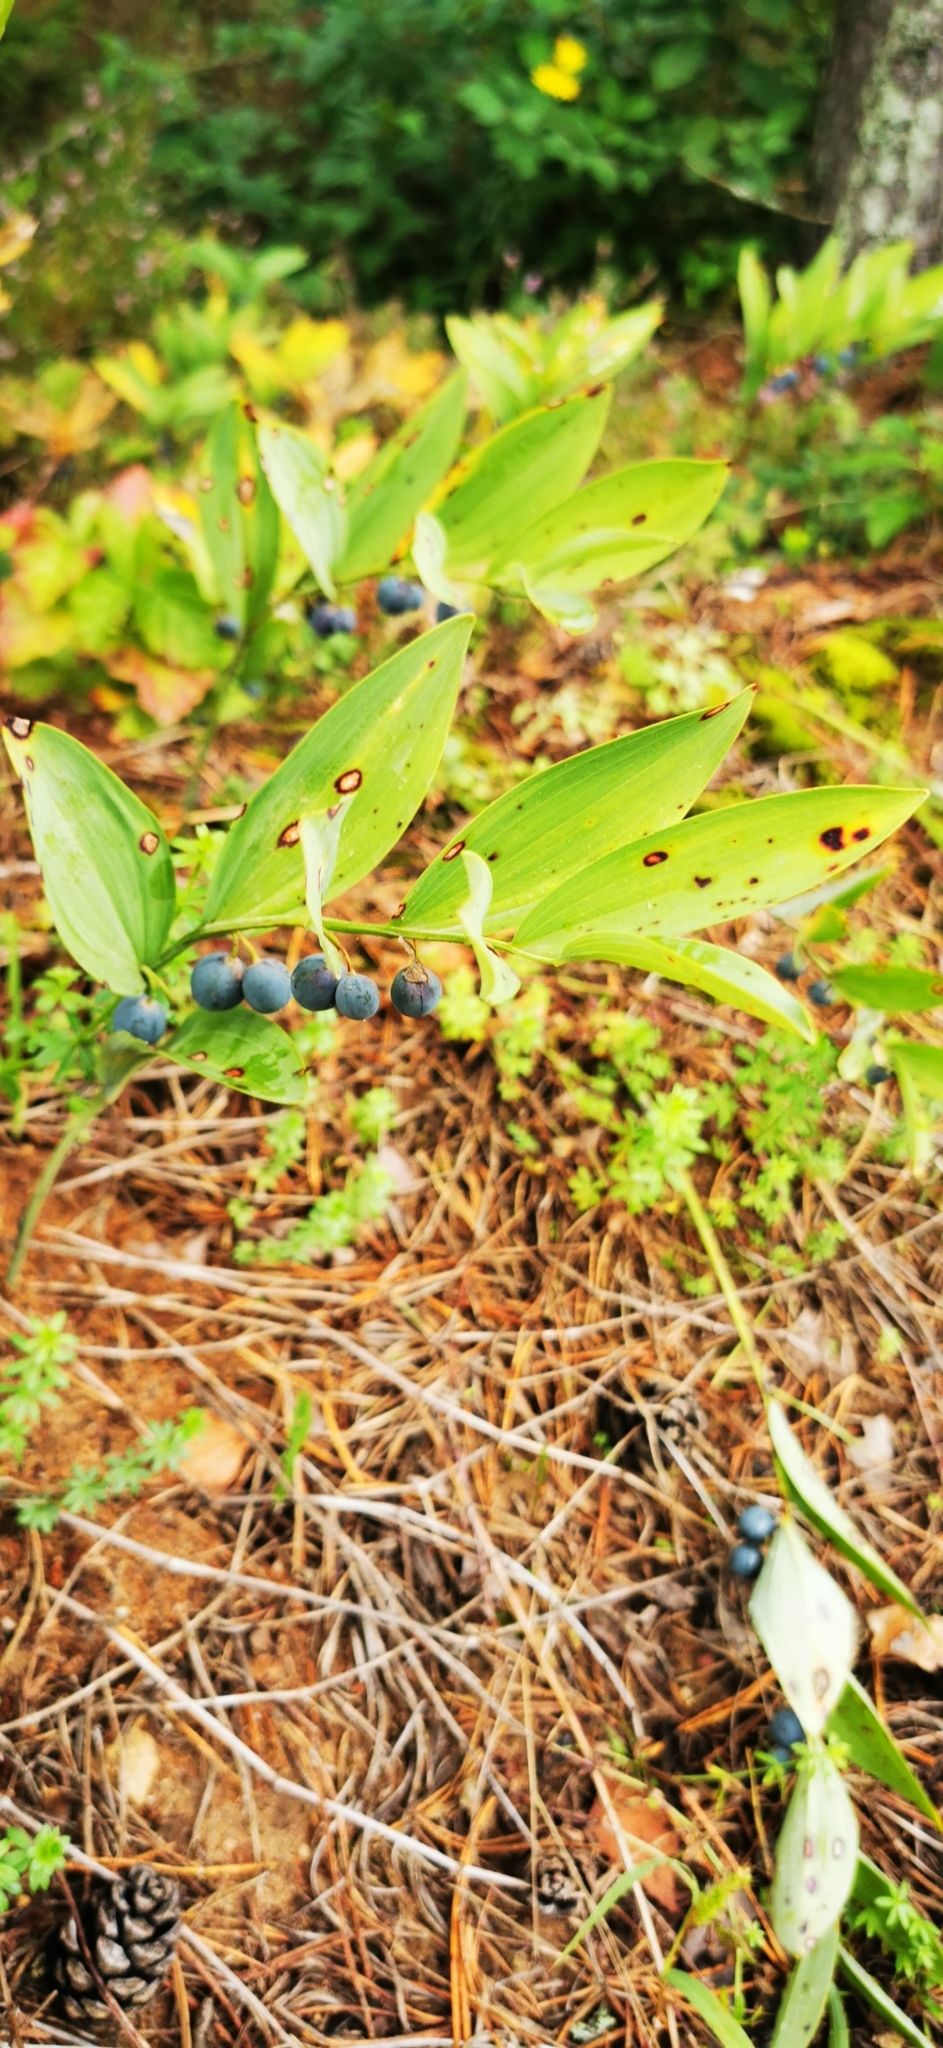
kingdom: Plantae
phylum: Tracheophyta
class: Liliopsida
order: Asparagales
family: Asparagaceae
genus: Polygonatum
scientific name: Polygonatum odoratum
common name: Angular solomon's-seal
